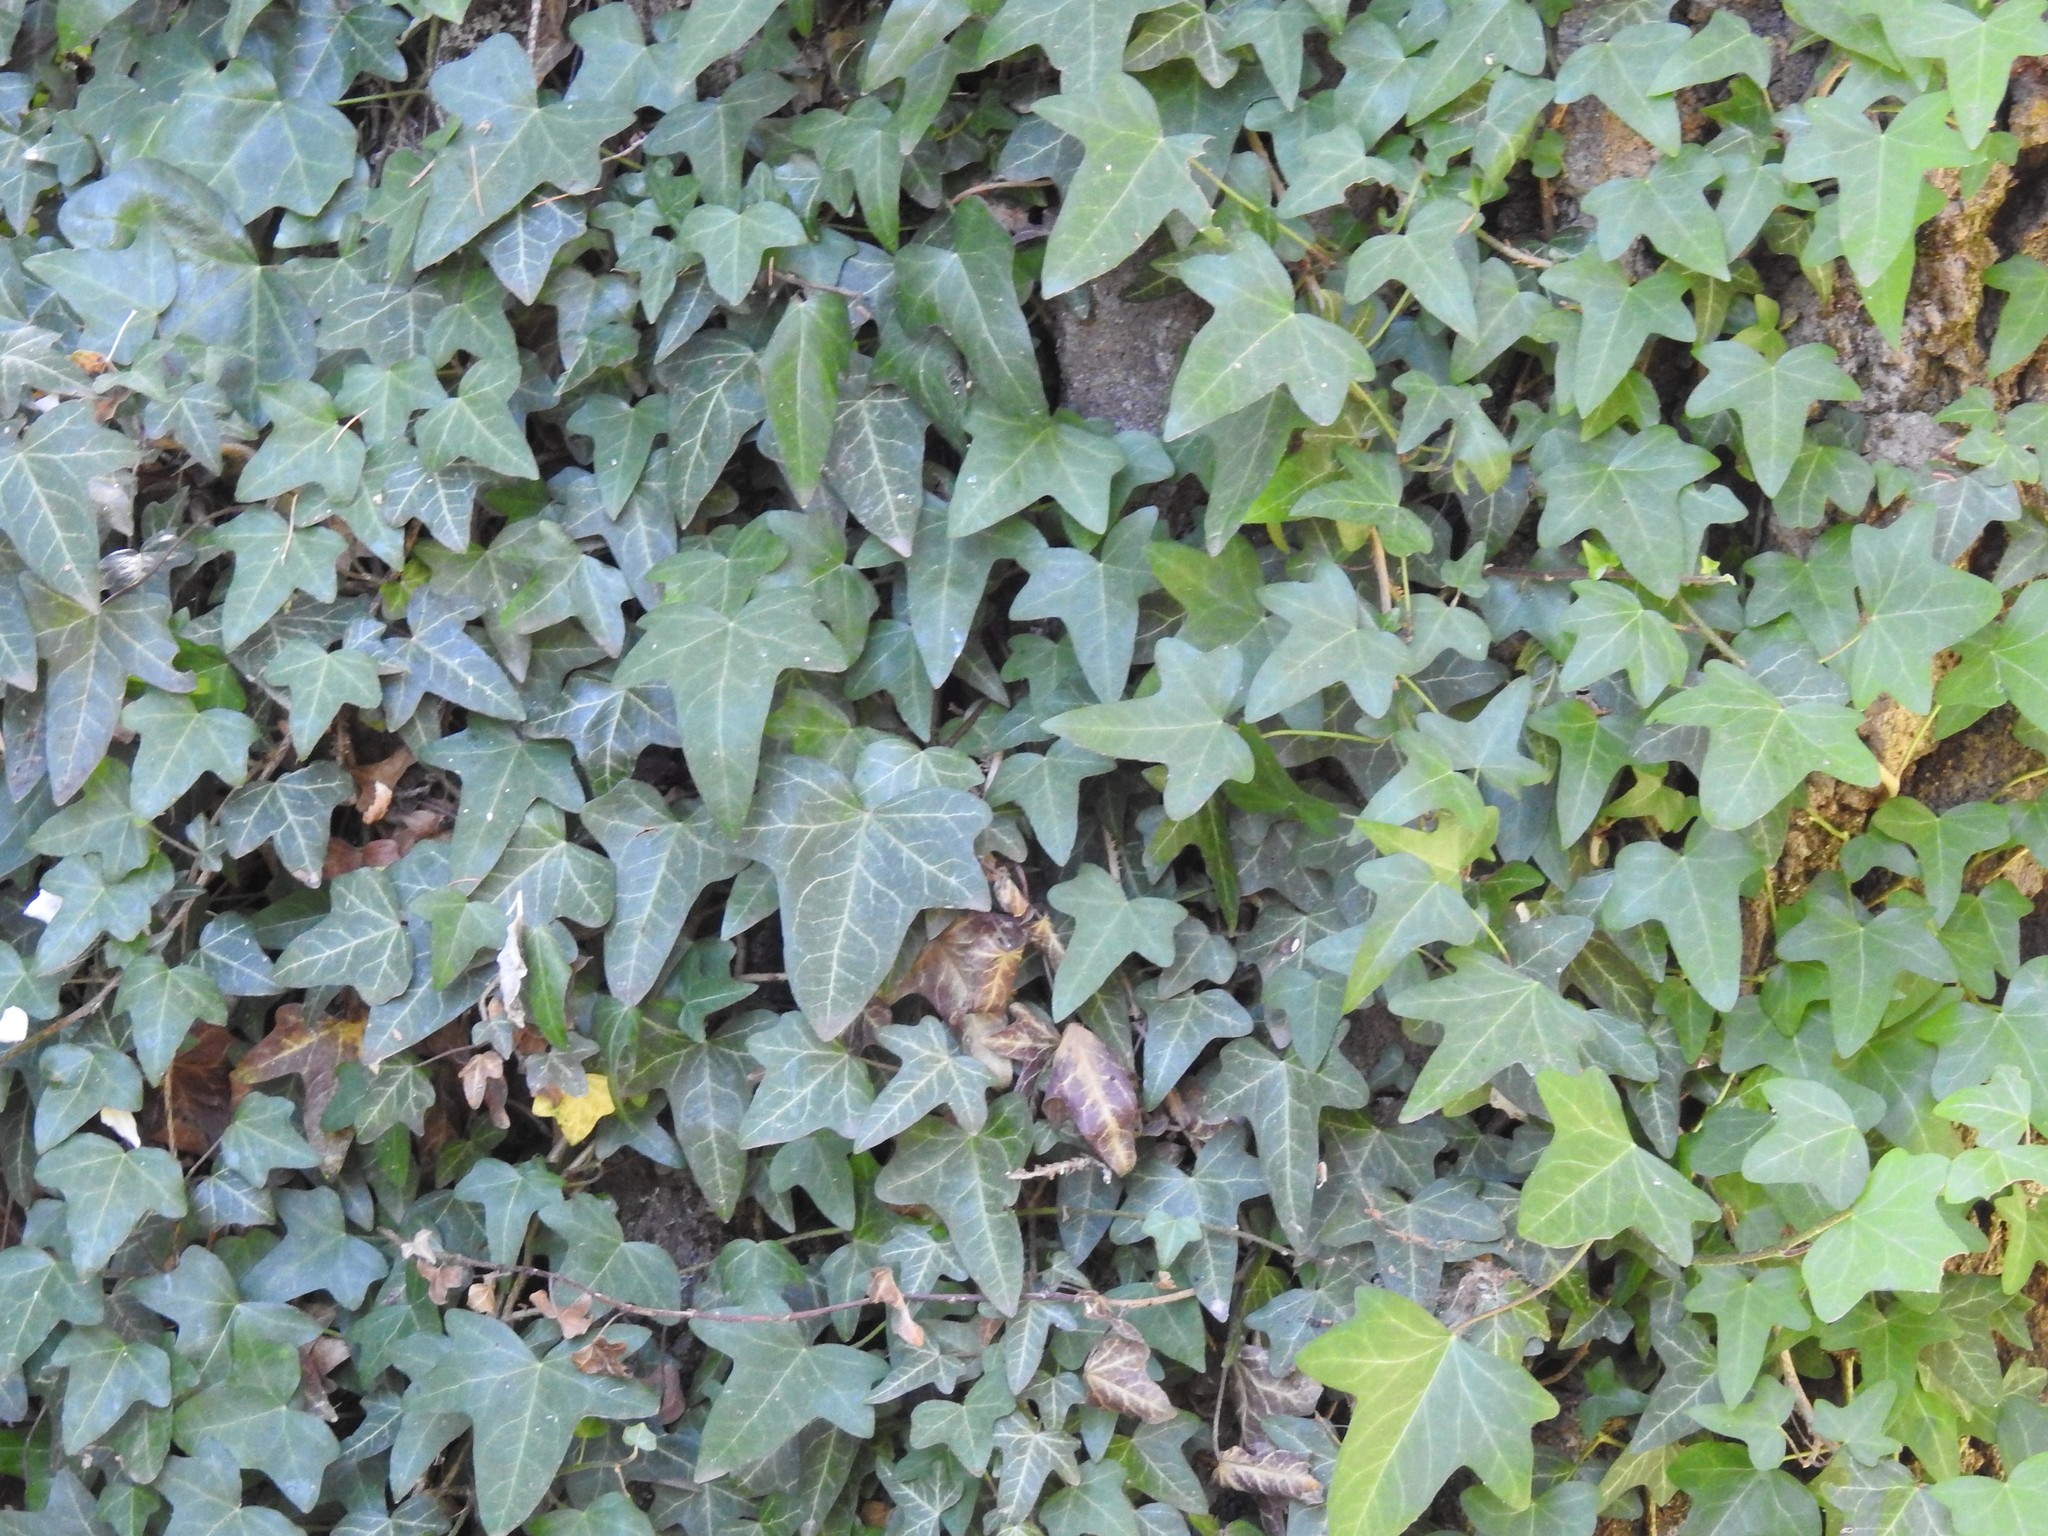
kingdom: Plantae
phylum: Tracheophyta
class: Magnoliopsida
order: Apiales
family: Araliaceae
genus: Hedera
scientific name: Hedera helix
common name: Ivy
